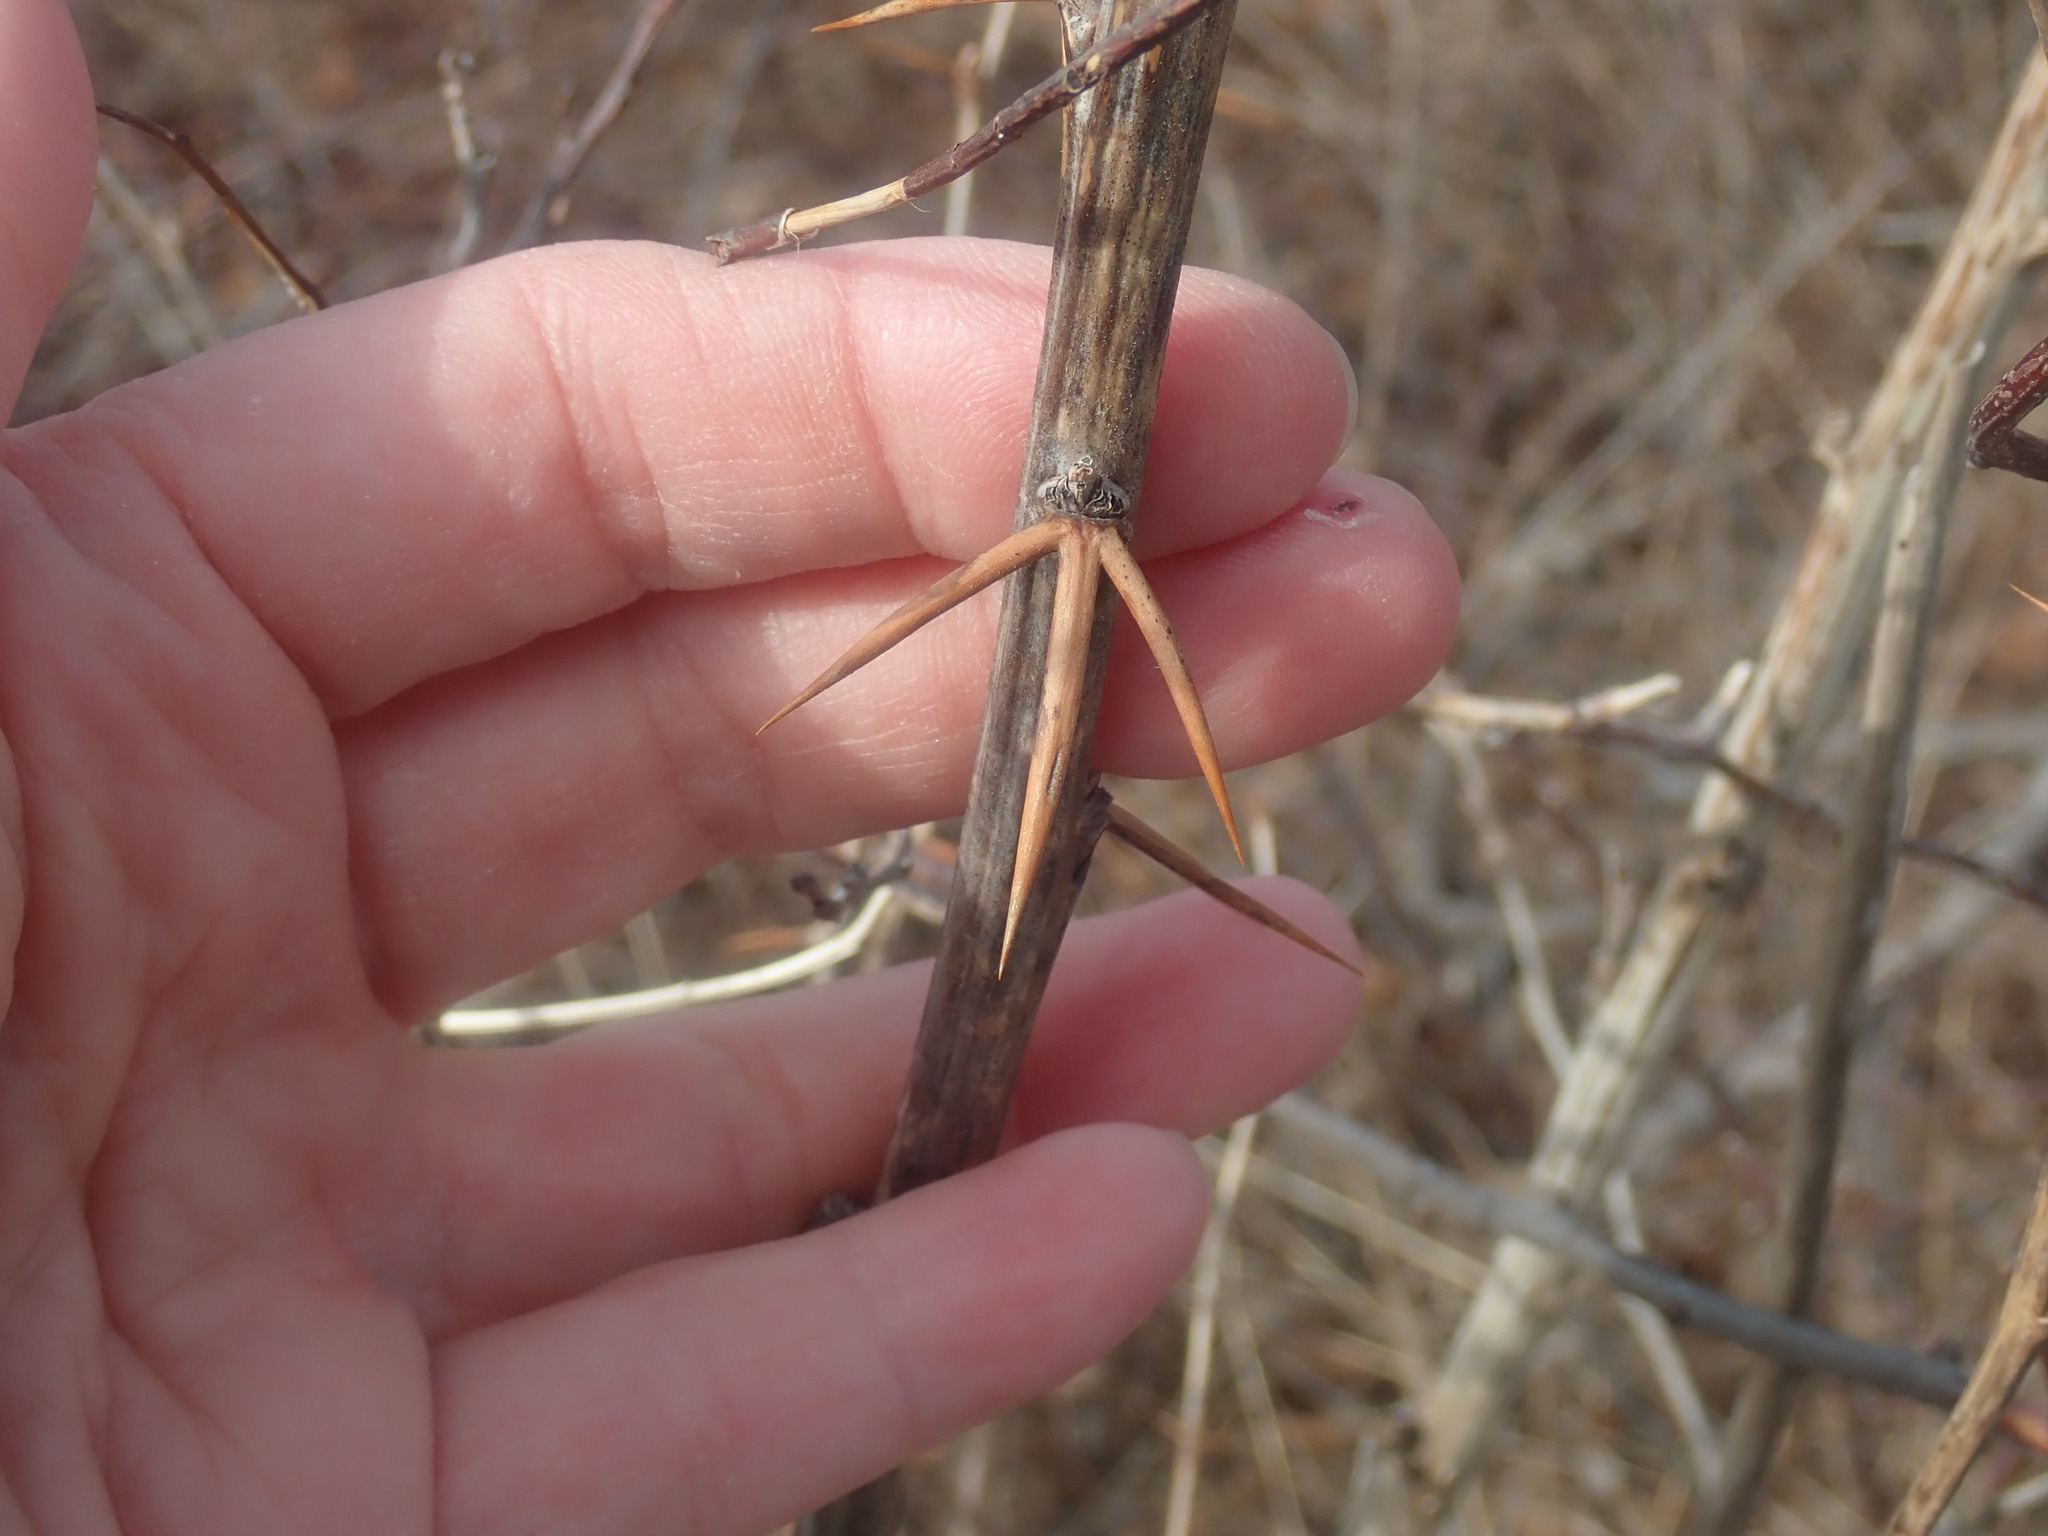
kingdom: Plantae
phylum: Tracheophyta
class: Magnoliopsida
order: Ranunculales
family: Berberidaceae
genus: Berberis
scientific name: Berberis vulgaris
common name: Barberry
